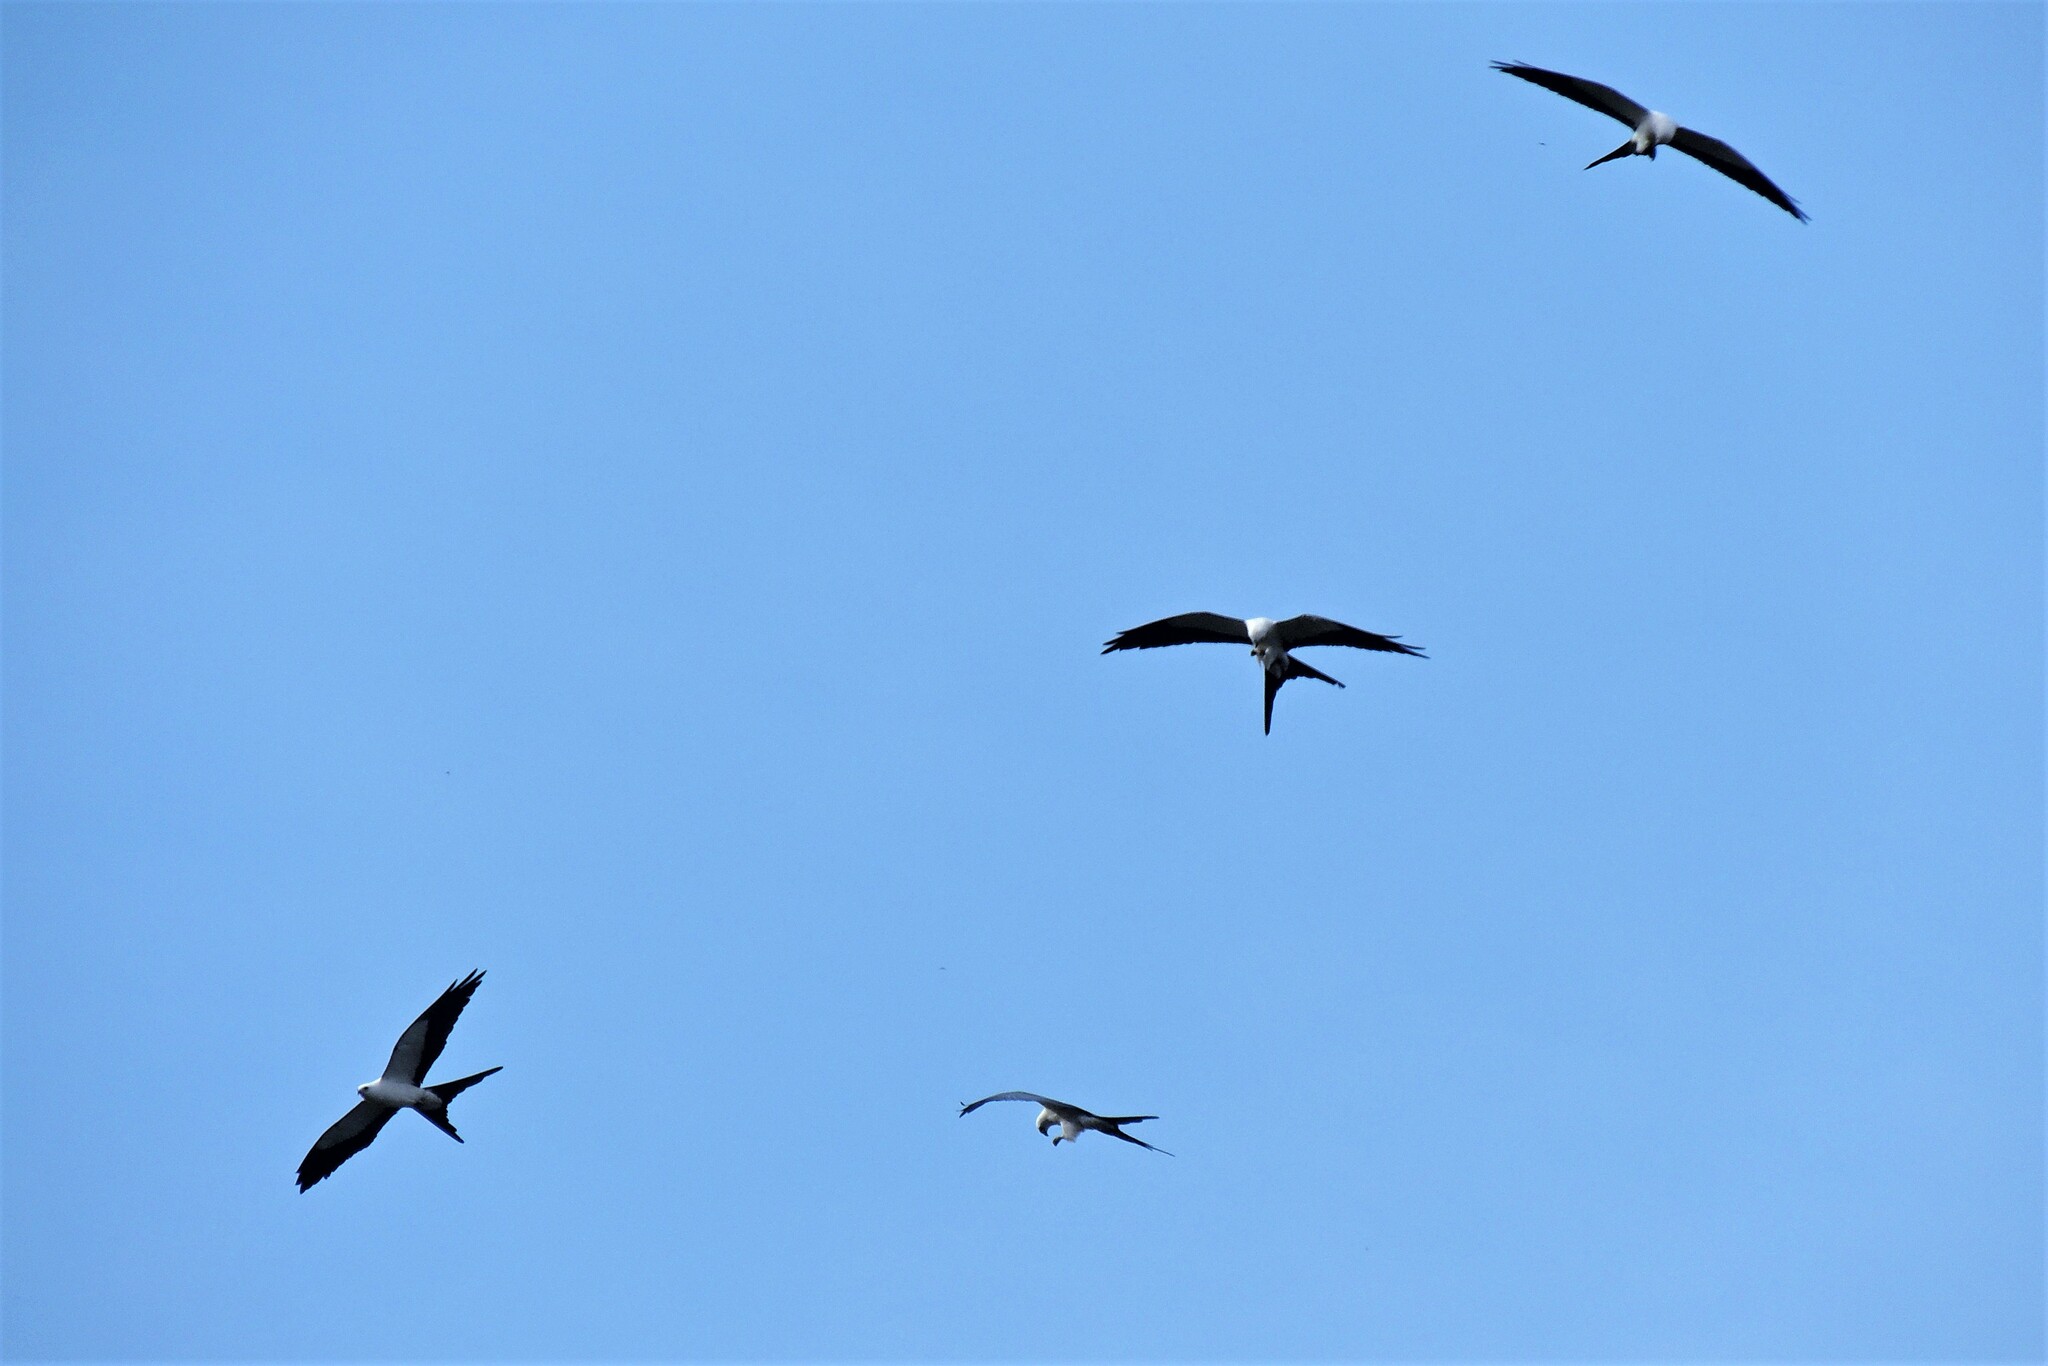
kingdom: Animalia
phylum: Chordata
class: Aves
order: Accipitriformes
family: Accipitridae
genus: Elanoides
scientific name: Elanoides forficatus
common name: Swallow-tailed kite
